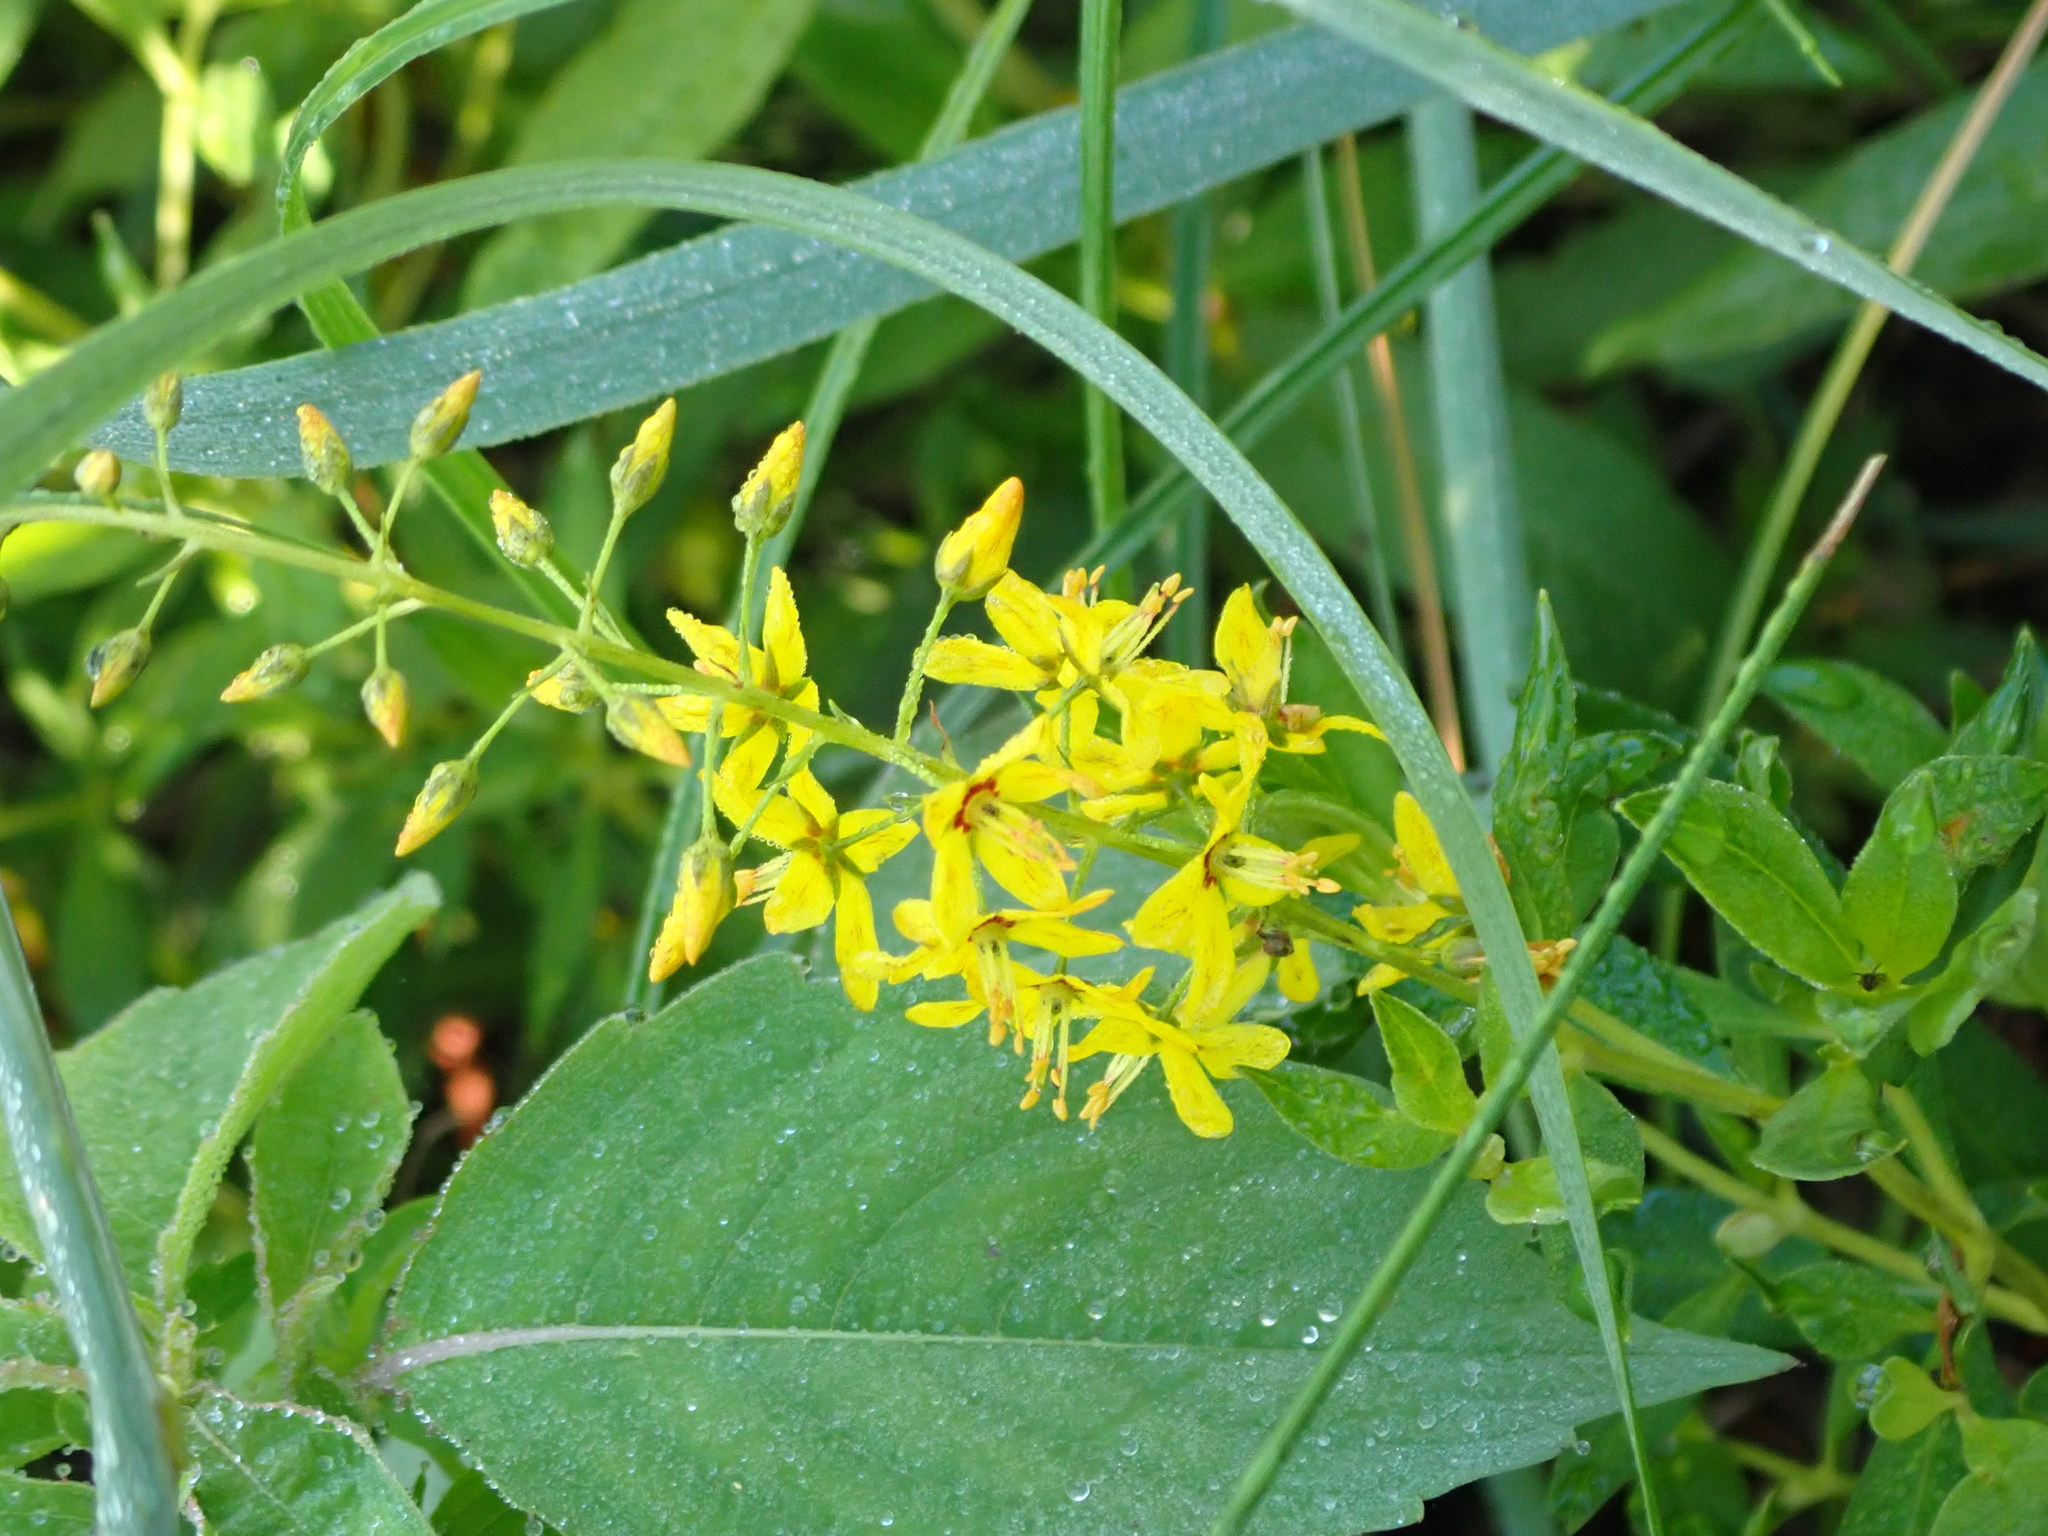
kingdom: Plantae
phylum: Tracheophyta
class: Magnoliopsida
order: Ericales
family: Primulaceae
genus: Lysimachia
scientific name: Lysimachia terrestris
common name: Lake loosestrife
